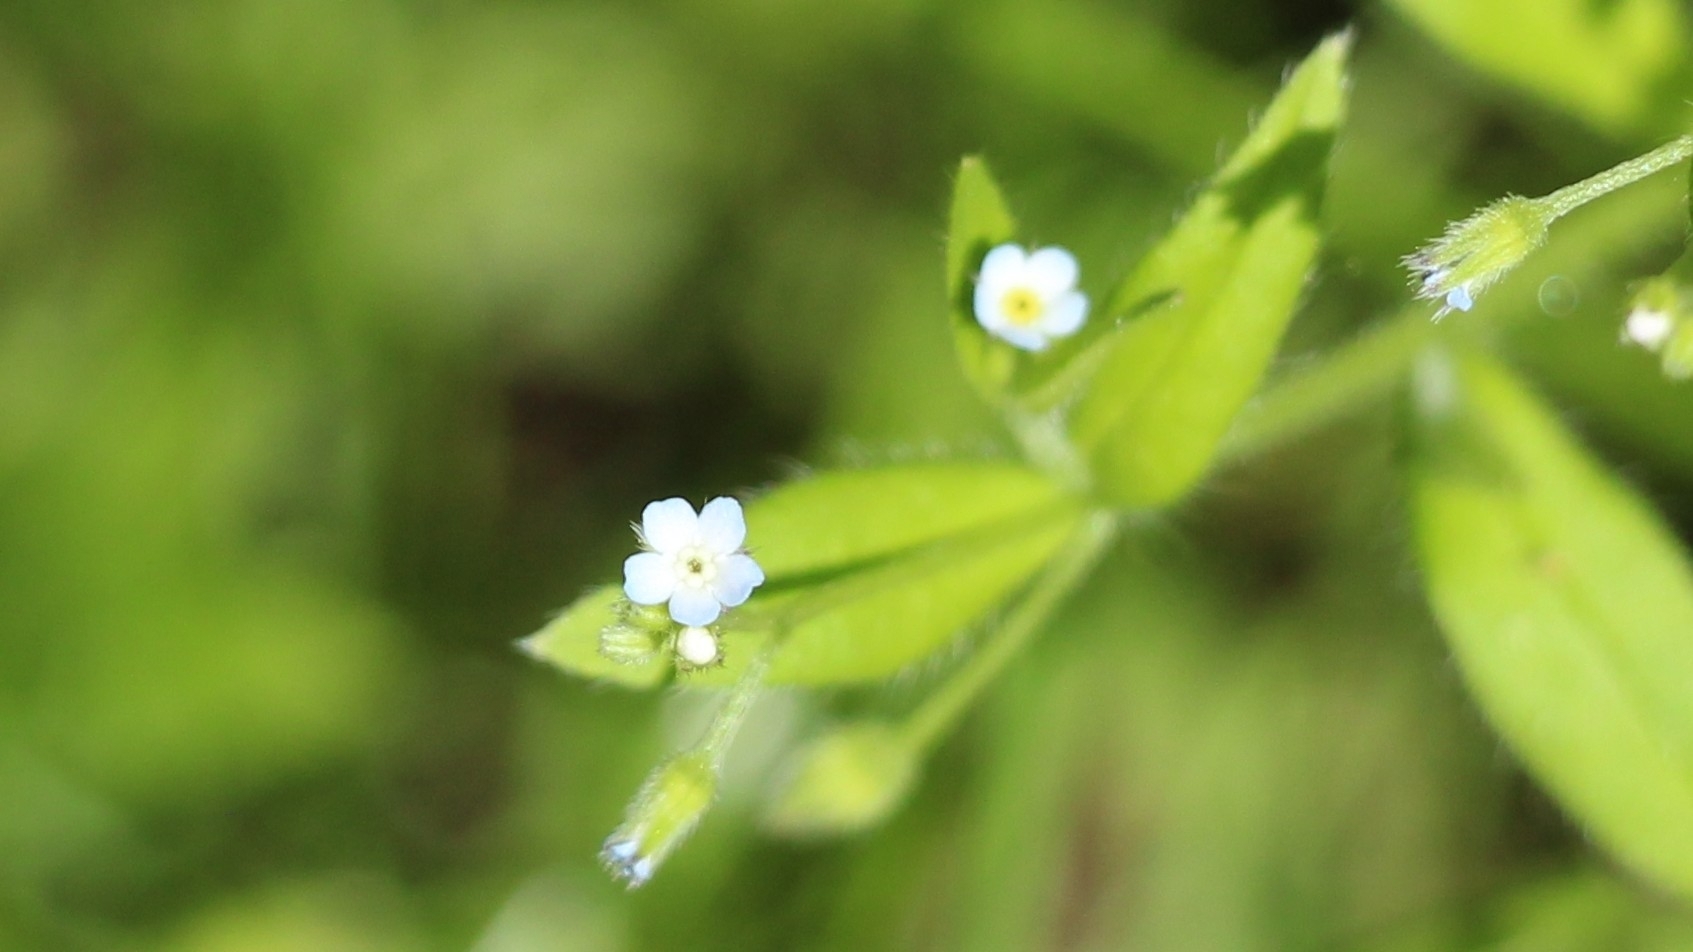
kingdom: Plantae
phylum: Tracheophyta
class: Magnoliopsida
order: Boraginales
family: Boraginaceae
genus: Myosotis
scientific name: Myosotis sparsiflora
